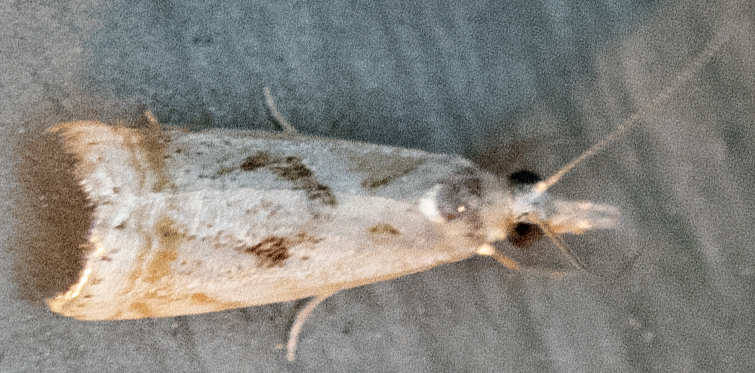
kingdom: Animalia
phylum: Arthropoda
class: Insecta
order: Lepidoptera
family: Crambidae
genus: Microcrambus
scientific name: Microcrambus elegans
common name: Elegant grass-veneer
